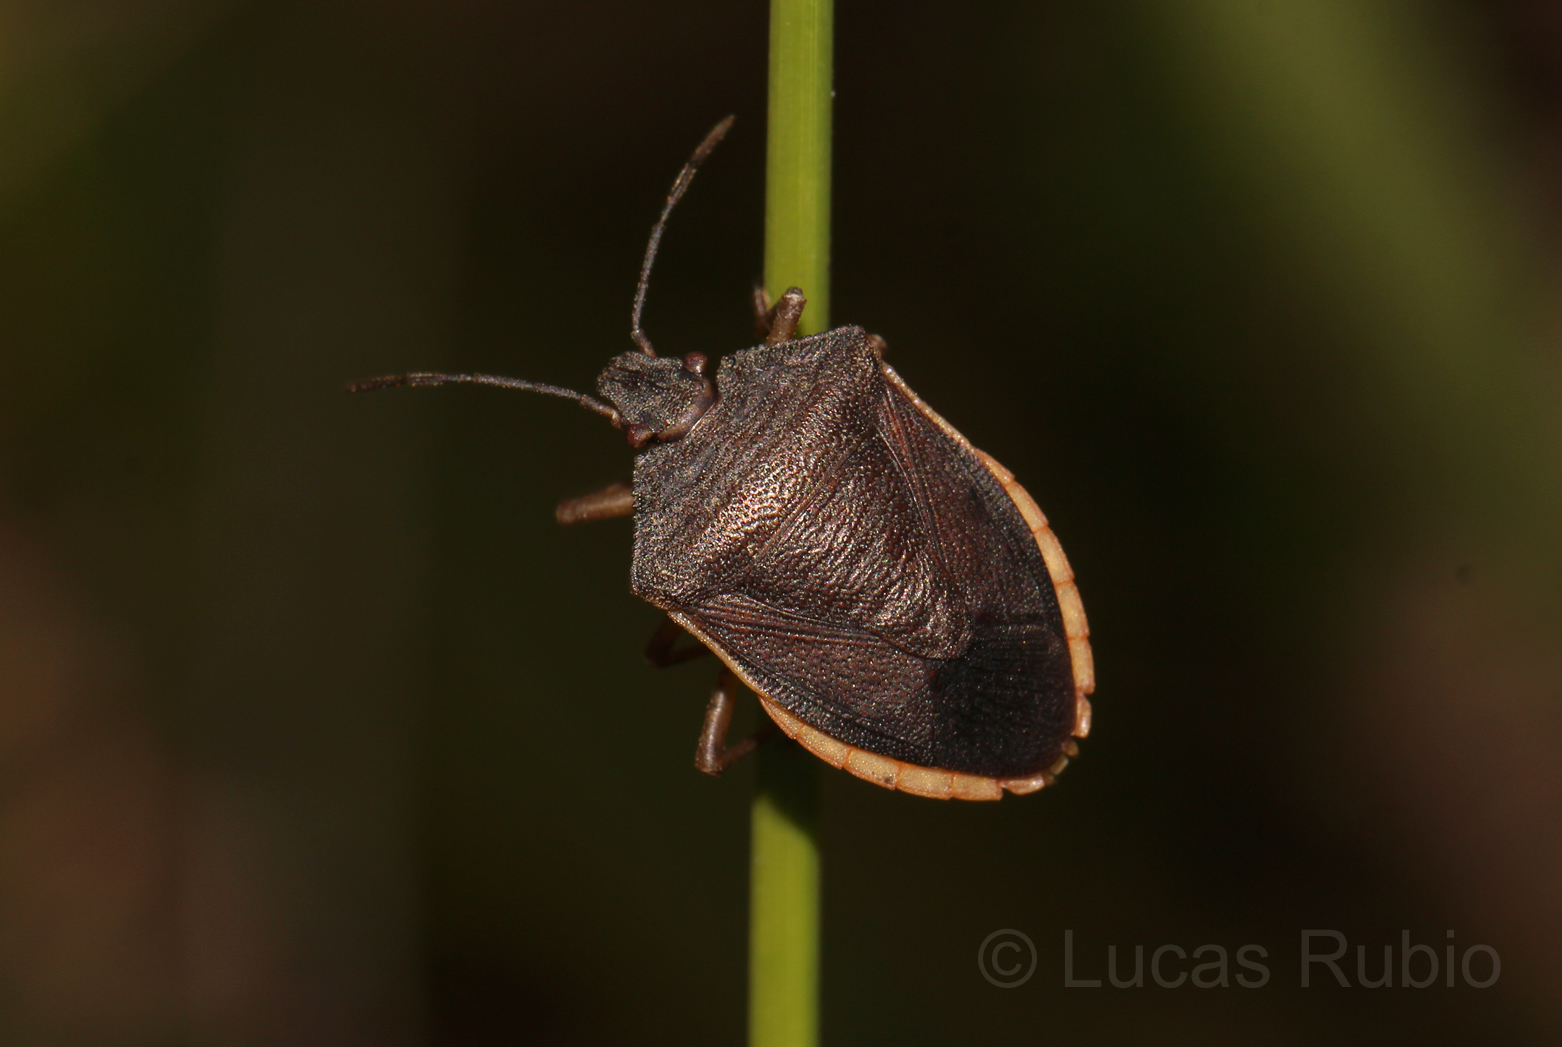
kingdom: Animalia
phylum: Arthropoda
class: Insecta
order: Hemiptera
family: Pentatomidae
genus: Euschistus
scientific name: Euschistus
